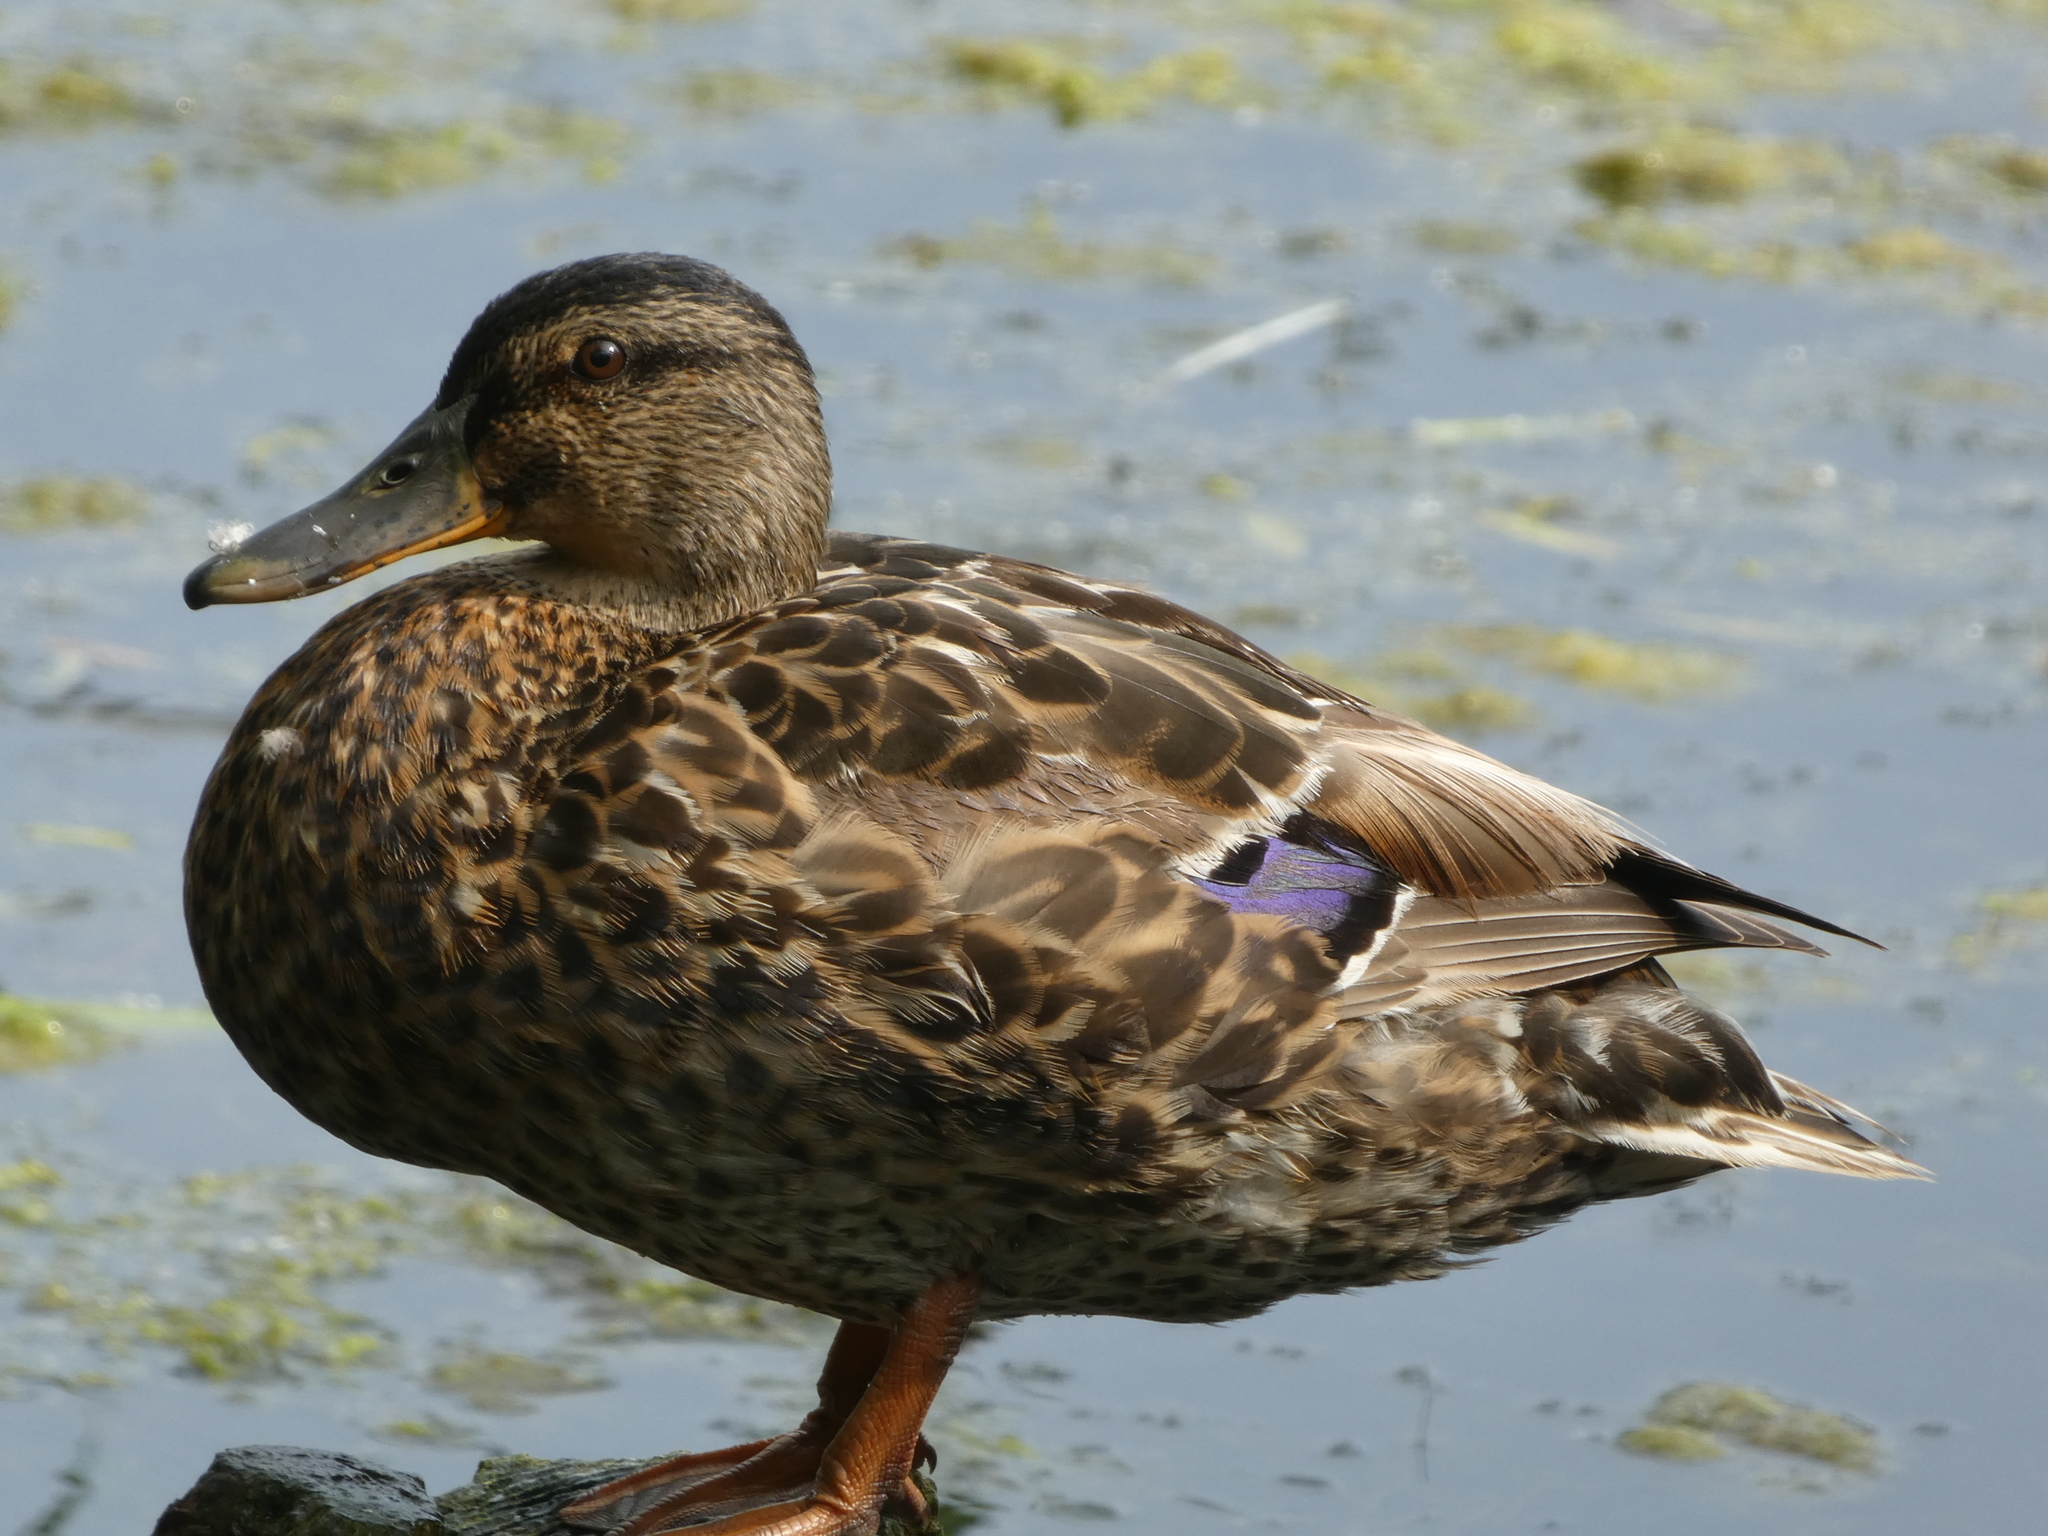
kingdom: Animalia
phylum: Chordata
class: Aves
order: Anseriformes
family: Anatidae
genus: Anas
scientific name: Anas platyrhynchos
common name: Mallard
